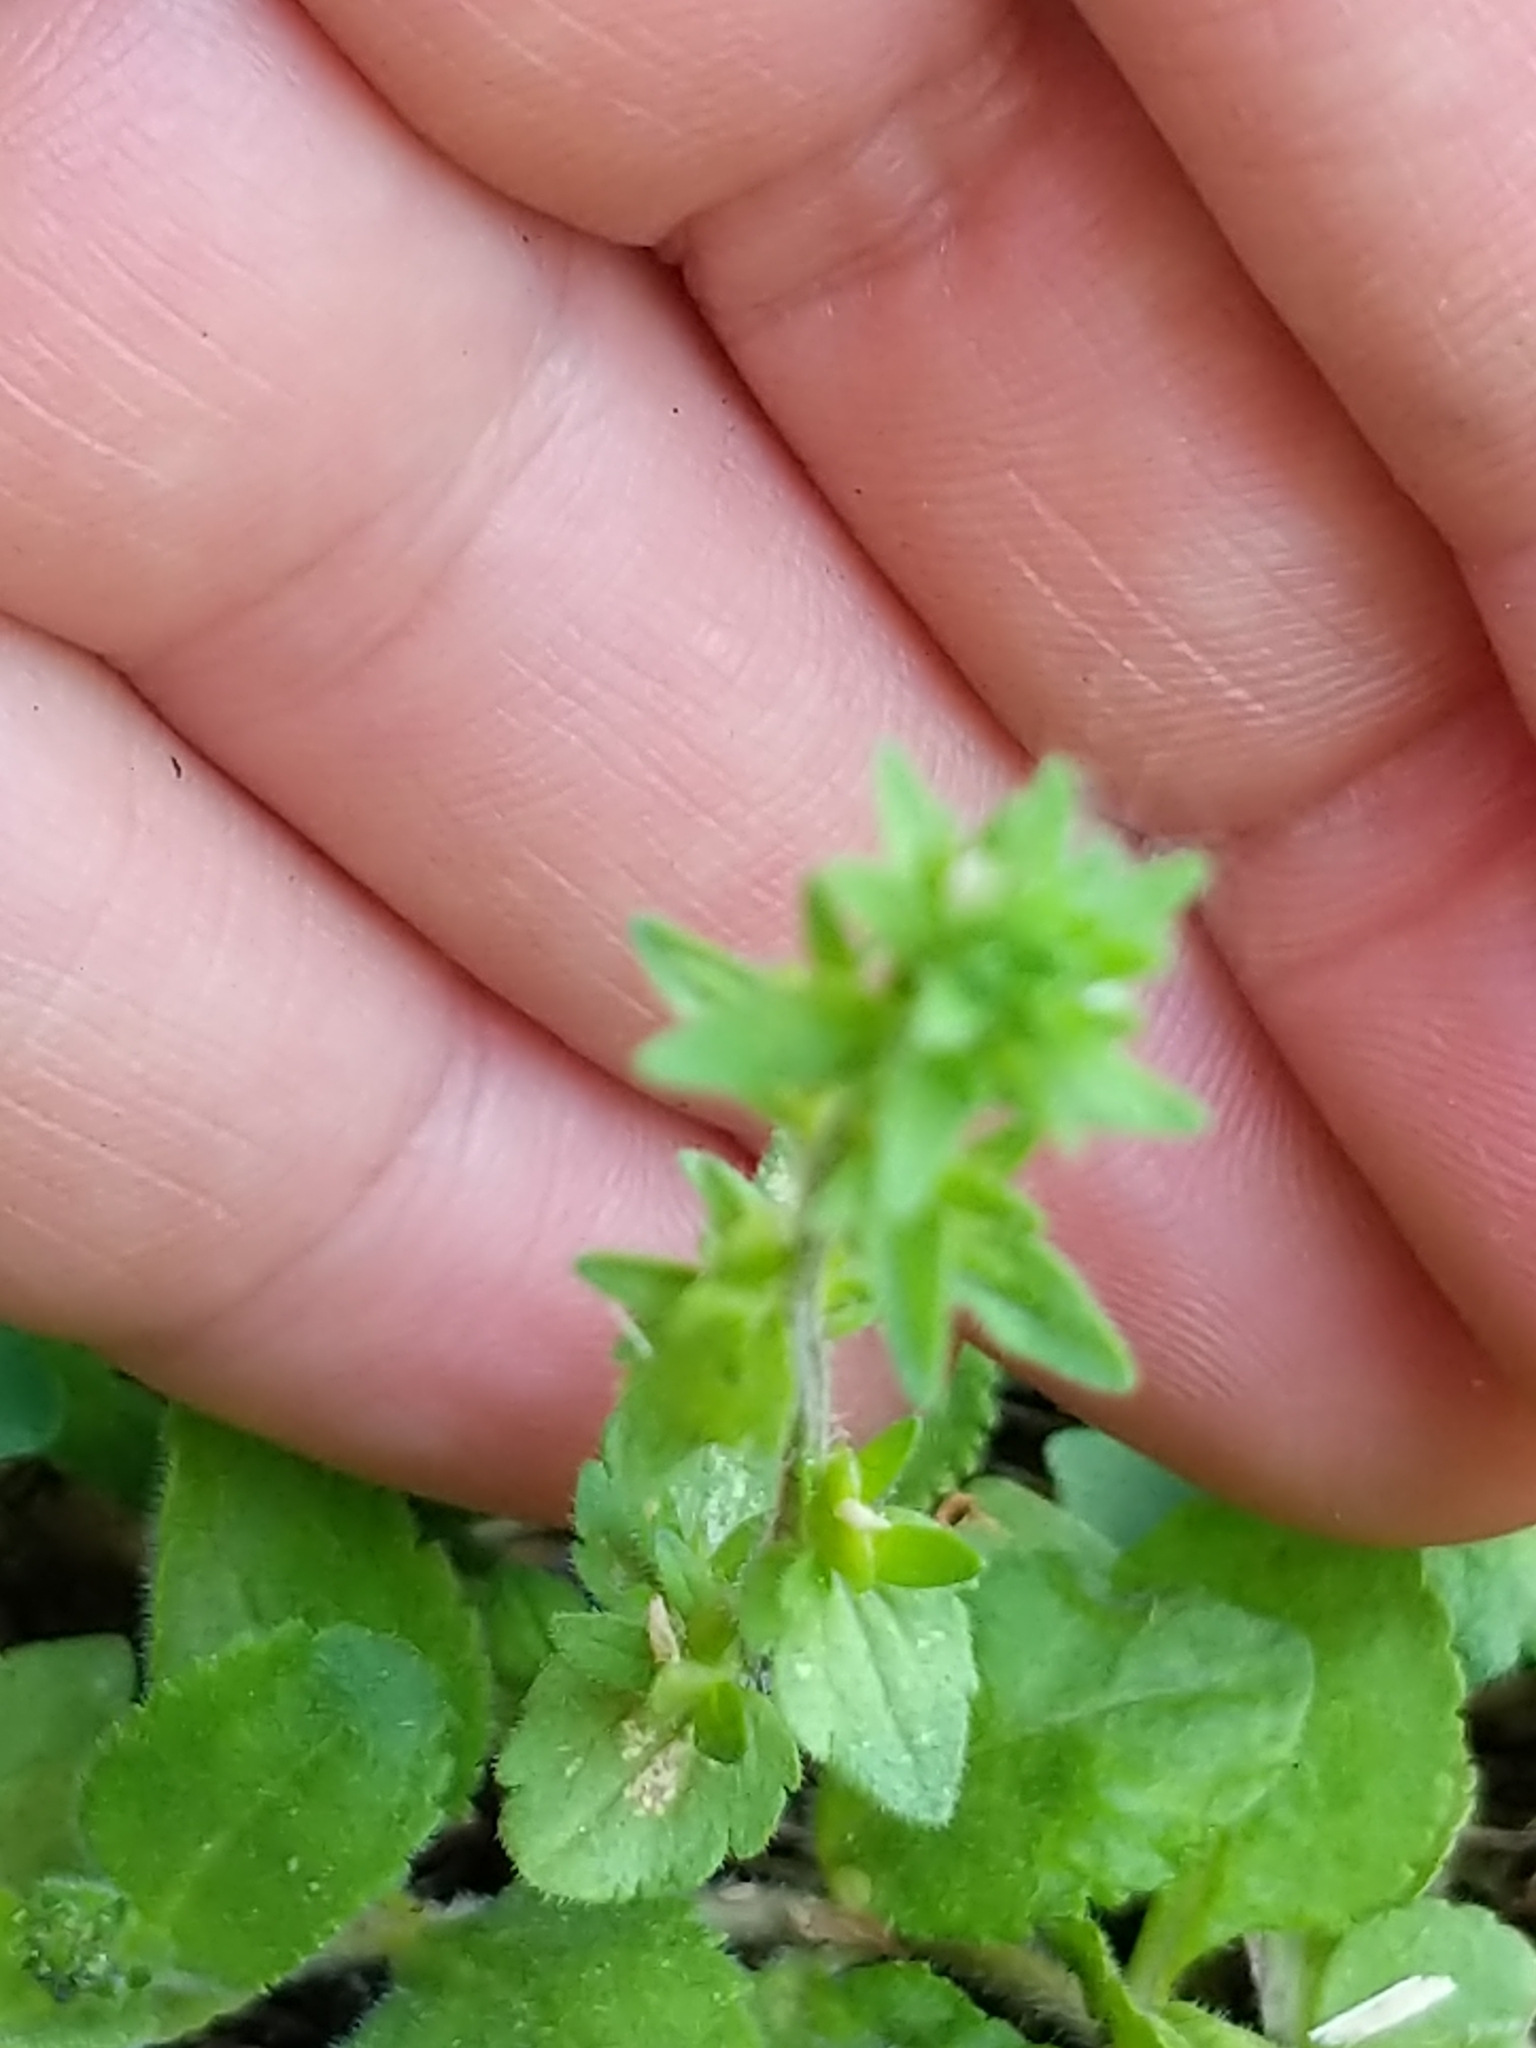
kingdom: Plantae
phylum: Tracheophyta
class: Magnoliopsida
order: Lamiales
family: Plantaginaceae
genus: Veronica
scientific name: Veronica arvensis
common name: Corn speedwell
